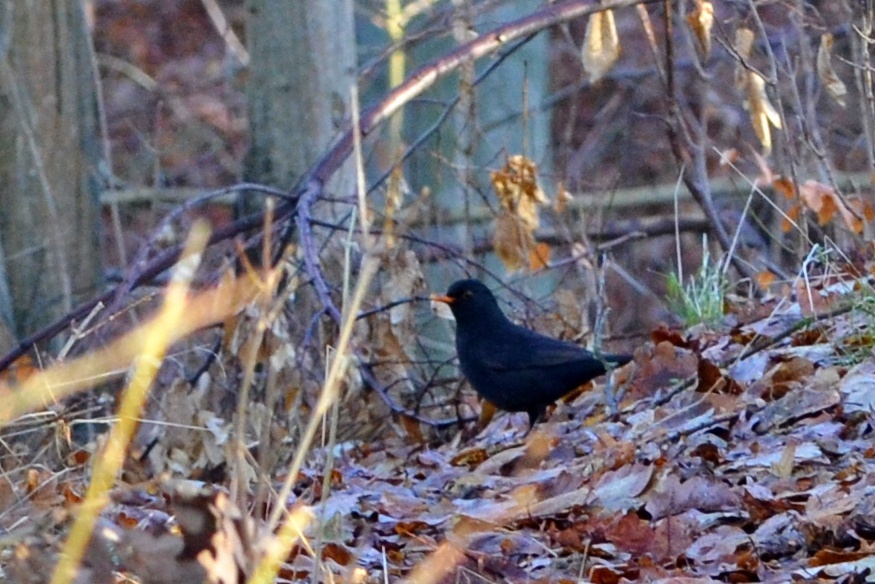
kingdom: Animalia
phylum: Chordata
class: Aves
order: Passeriformes
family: Turdidae
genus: Turdus
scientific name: Turdus merula
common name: Common blackbird
